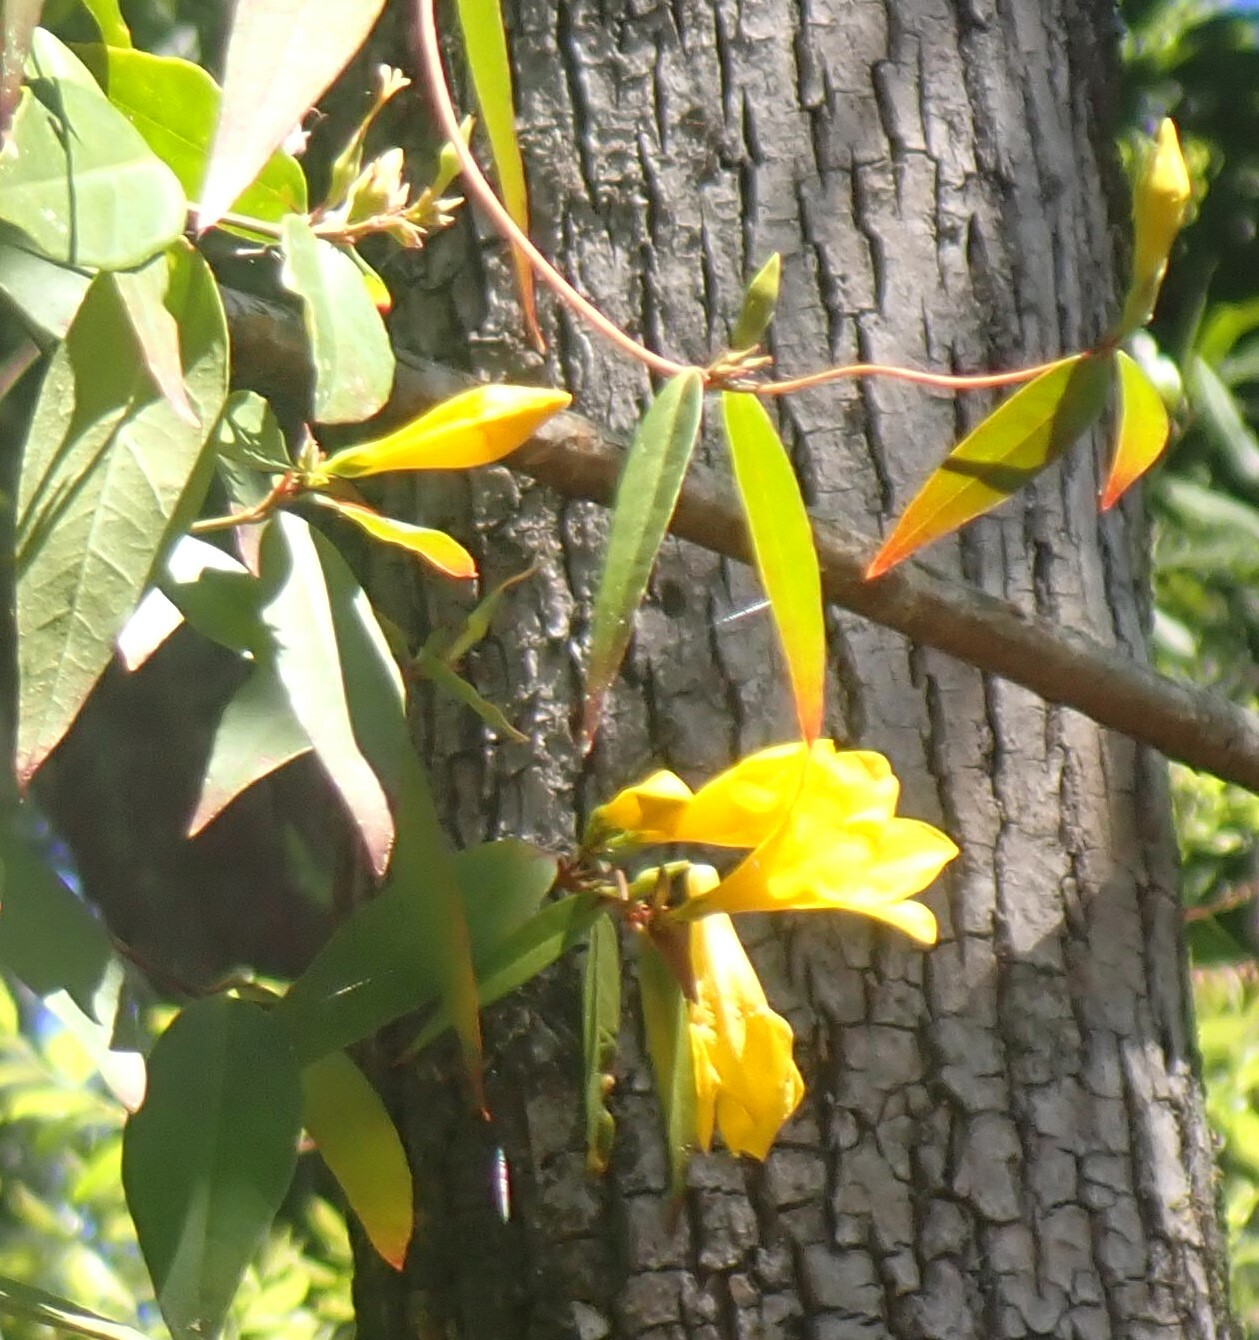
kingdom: Plantae
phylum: Tracheophyta
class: Magnoliopsida
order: Gentianales
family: Gelsemiaceae
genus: Gelsemium
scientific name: Gelsemium rankinii
